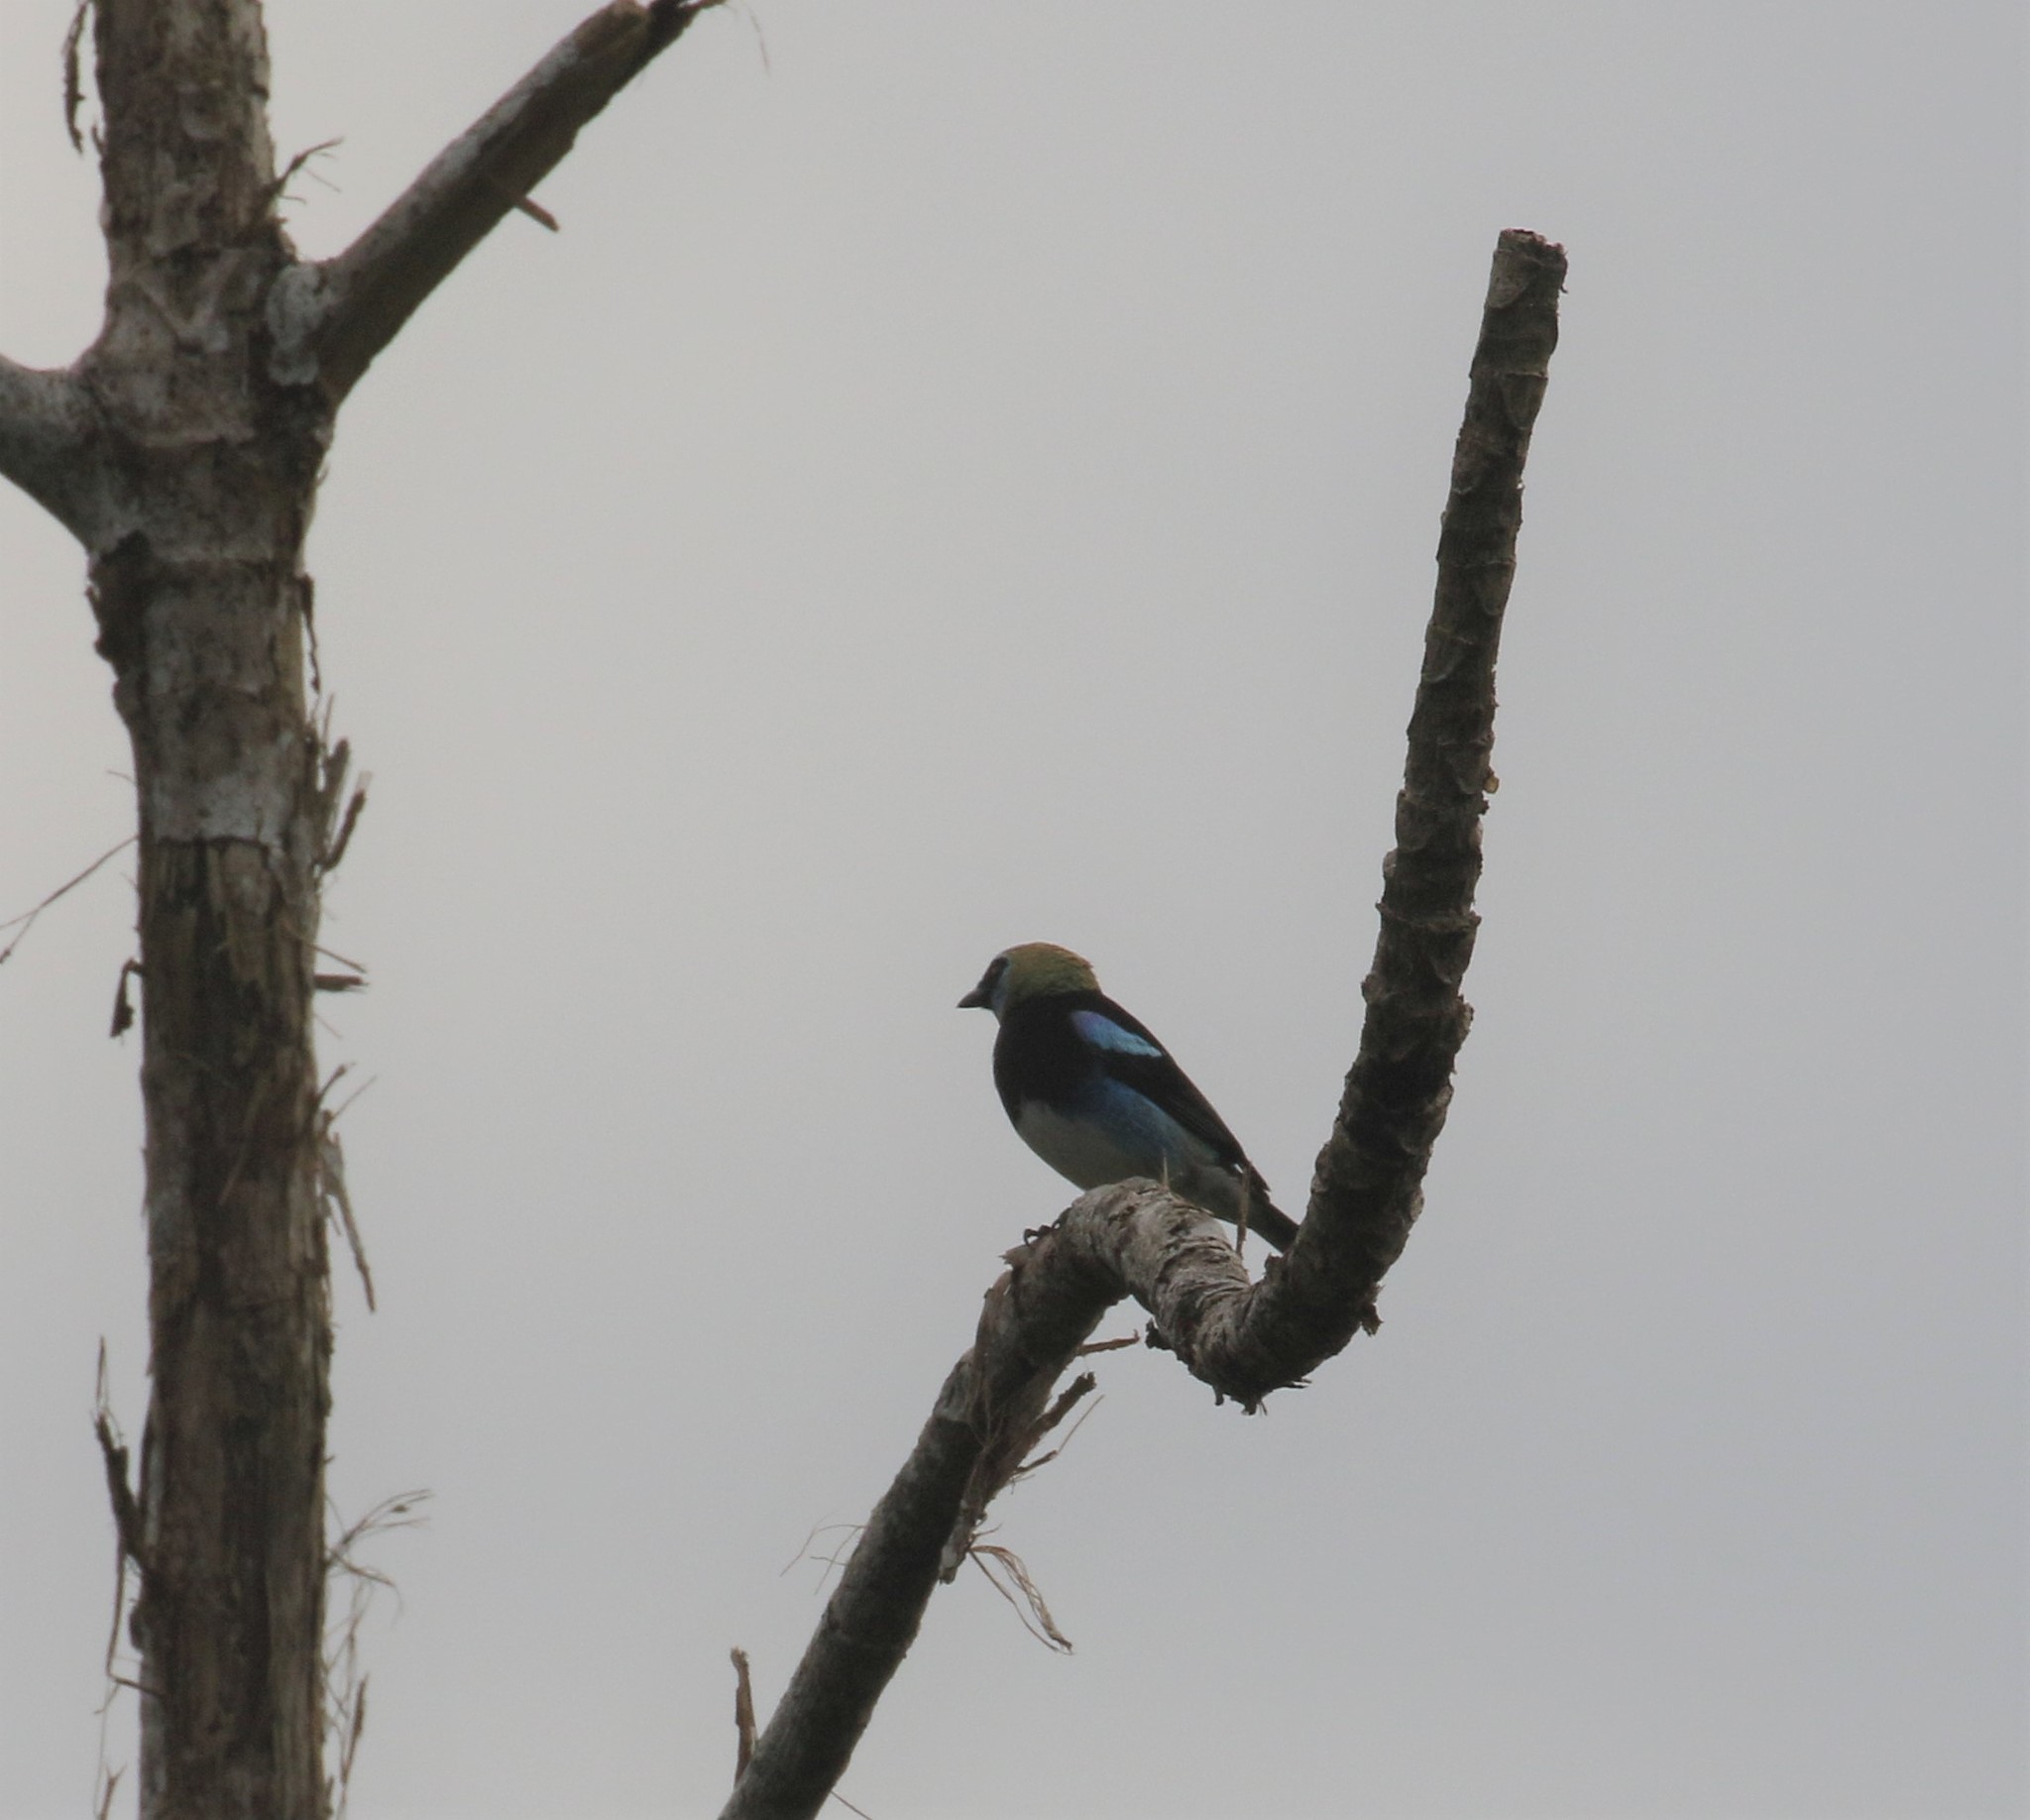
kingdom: Animalia
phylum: Chordata
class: Aves
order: Passeriformes
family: Thraupidae
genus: Stilpnia
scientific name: Stilpnia larvata
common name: Golden-hooded tanager
